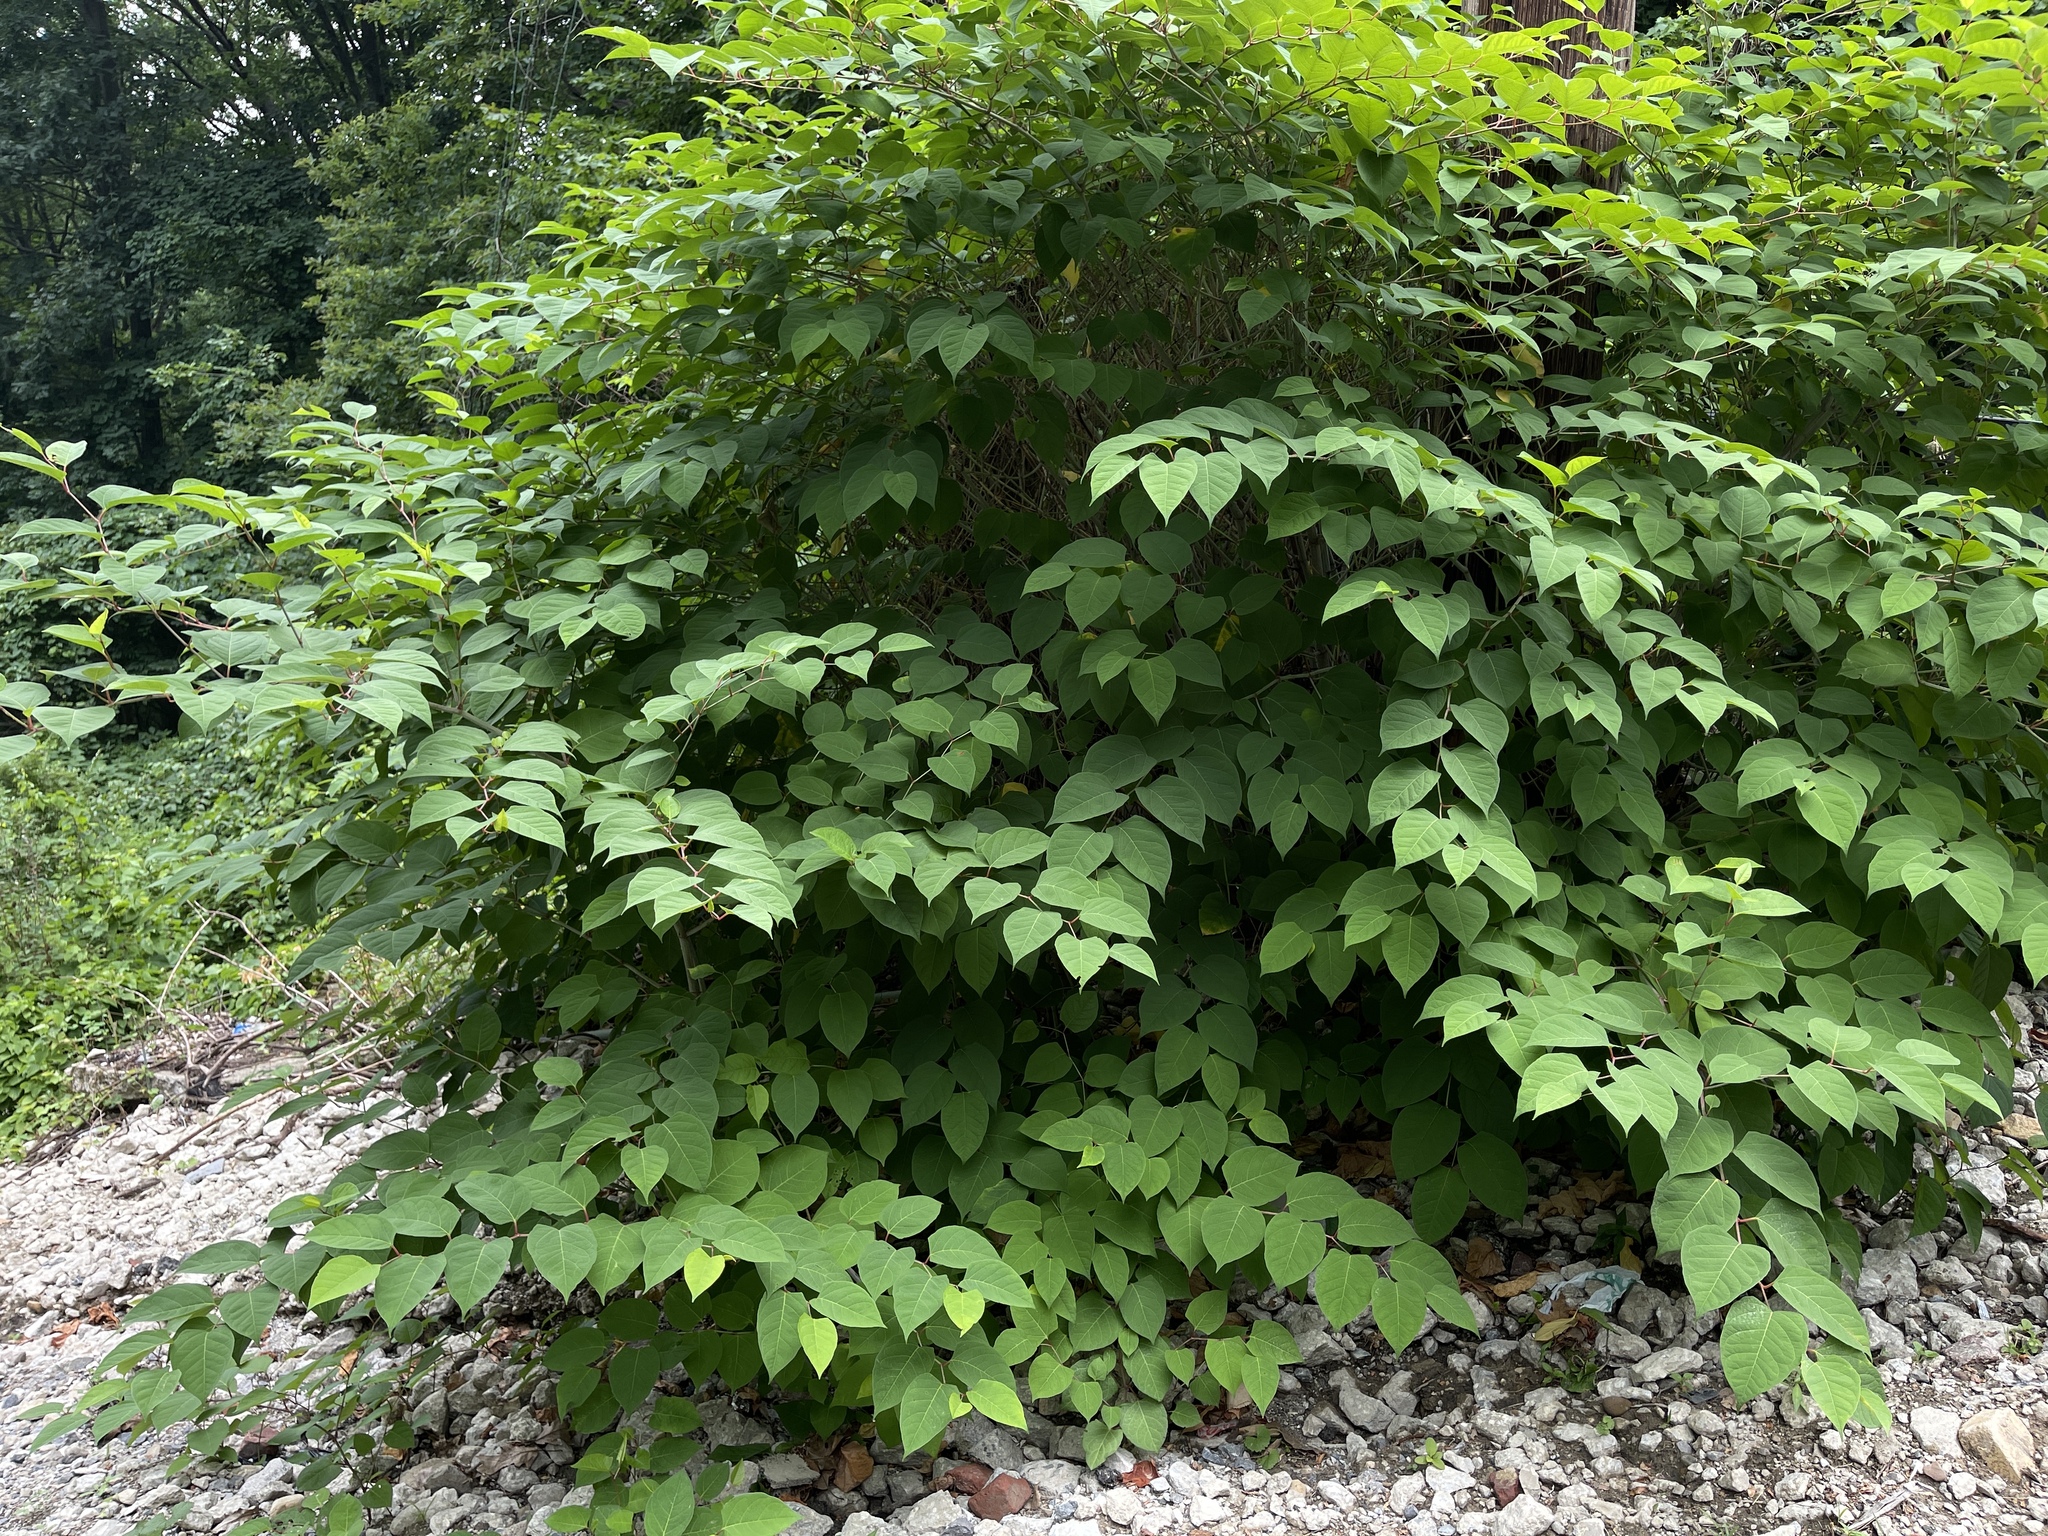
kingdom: Plantae
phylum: Tracheophyta
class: Magnoliopsida
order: Caryophyllales
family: Polygonaceae
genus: Reynoutria
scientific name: Reynoutria japonica
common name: Japanese knotweed
